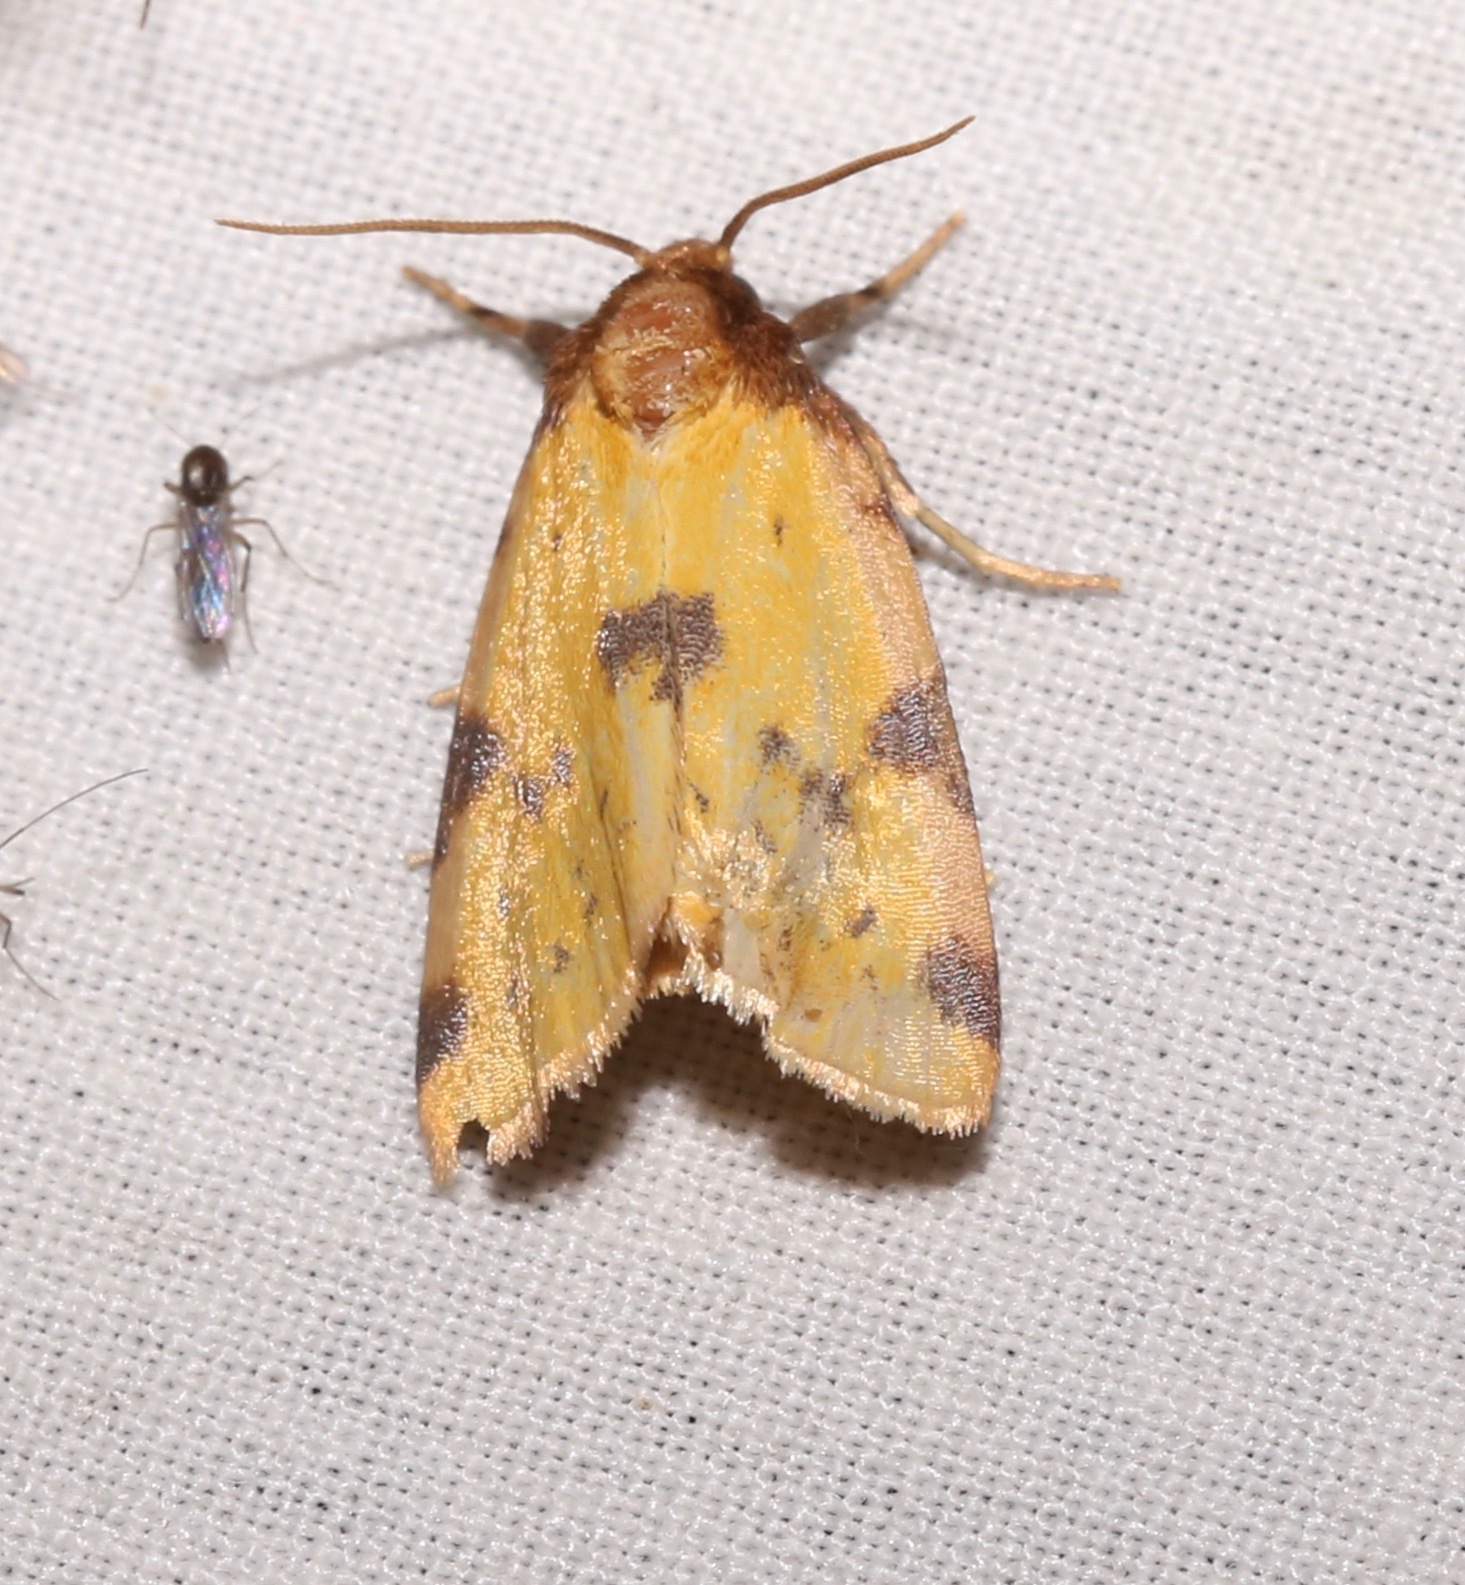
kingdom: Animalia
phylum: Arthropoda
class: Insecta
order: Lepidoptera
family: Noctuidae
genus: Azenia
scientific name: Azenia obtusa
